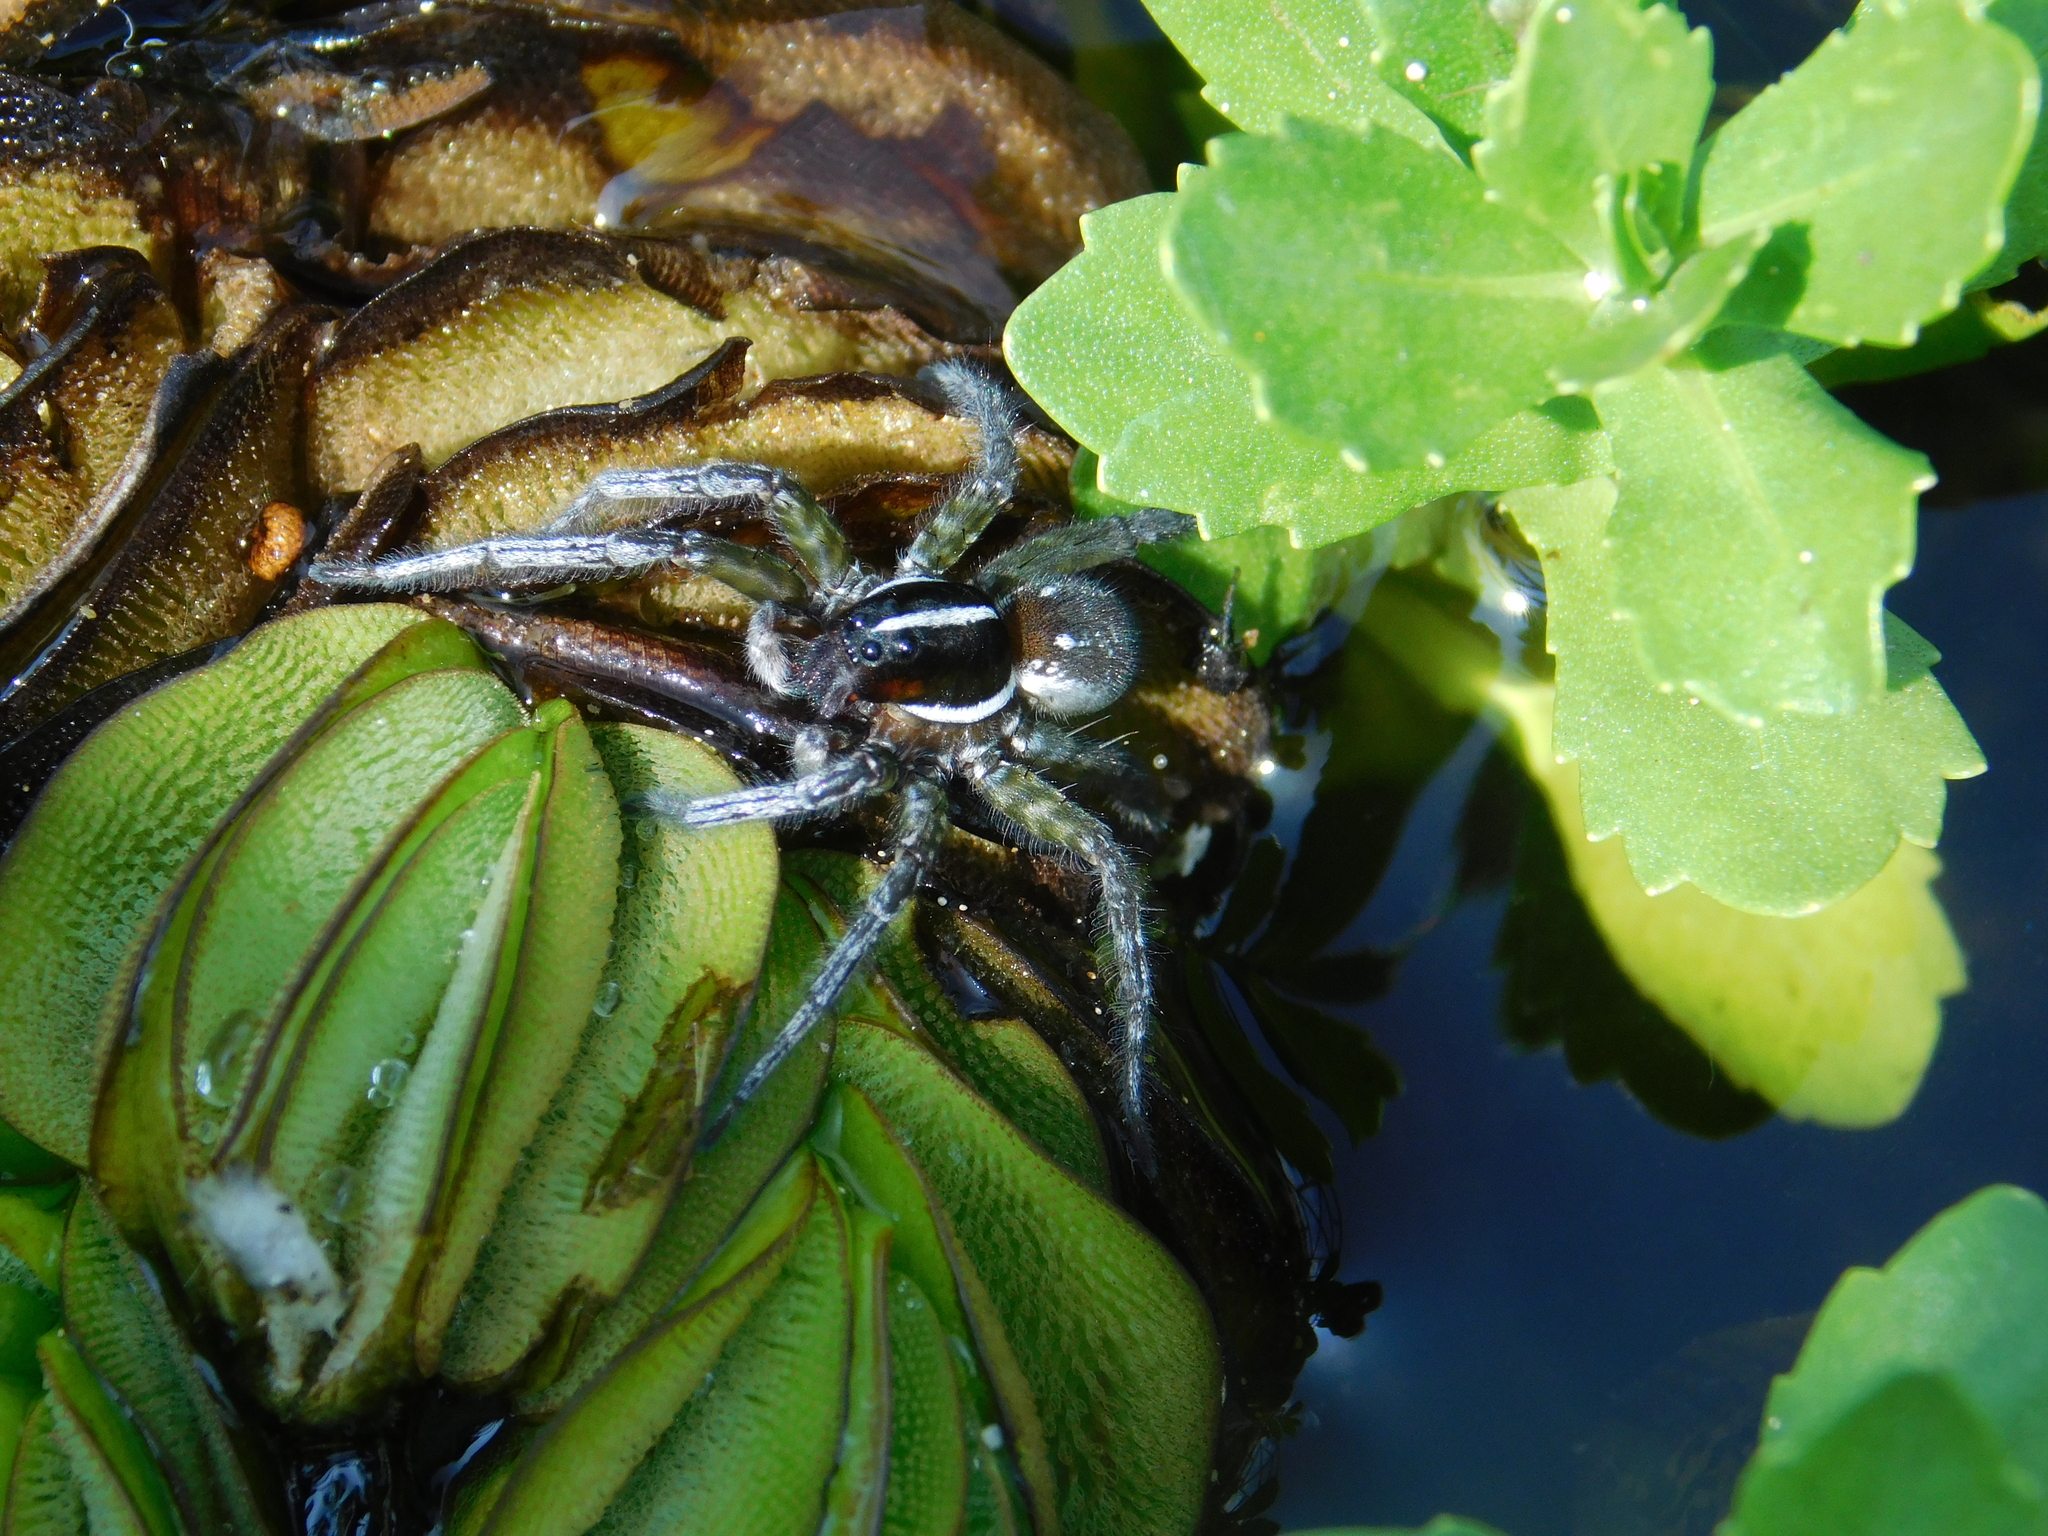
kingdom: Animalia
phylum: Arthropoda
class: Arachnida
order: Araneae
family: Lycosidae
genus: Allocosa
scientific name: Allocosa paraguayensis
